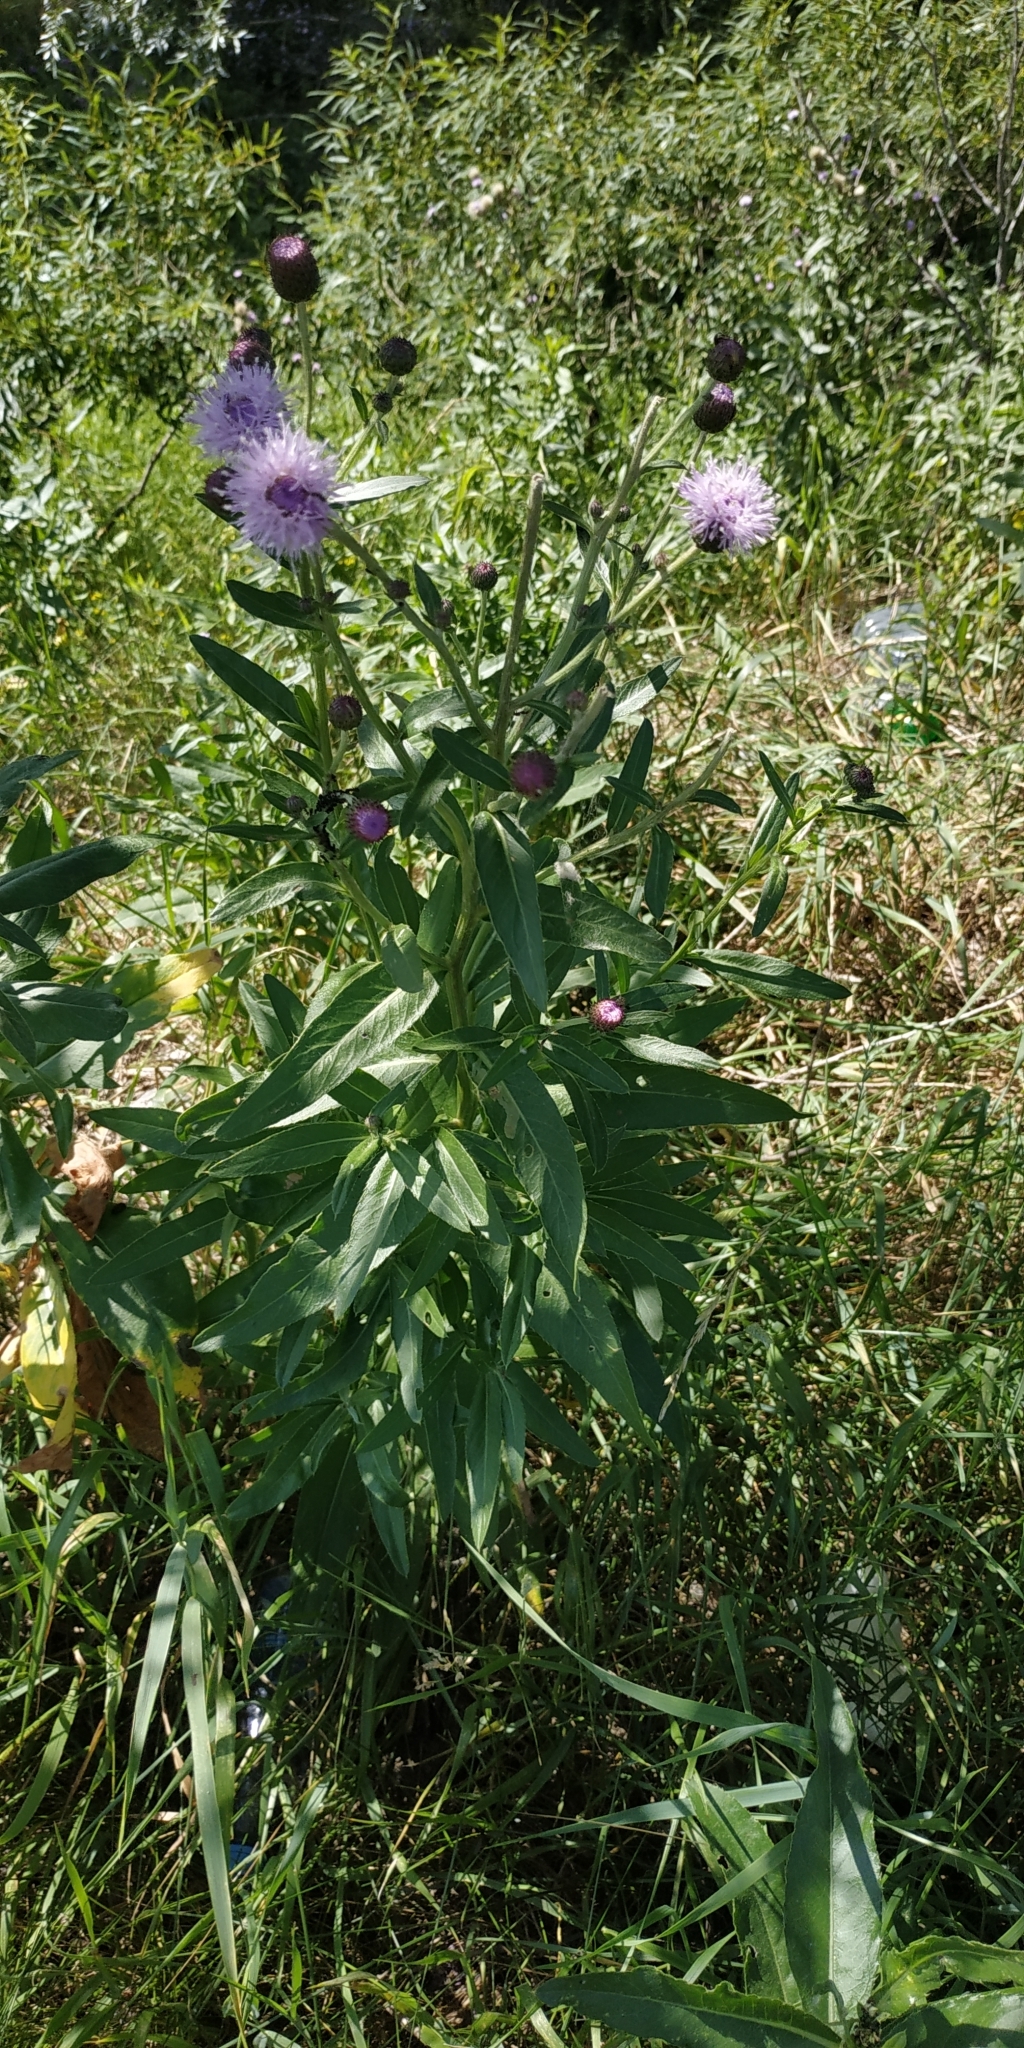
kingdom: Plantae
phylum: Tracheophyta
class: Magnoliopsida
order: Asterales
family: Asteraceae
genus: Cirsium
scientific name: Cirsium arvense
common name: Creeping thistle
